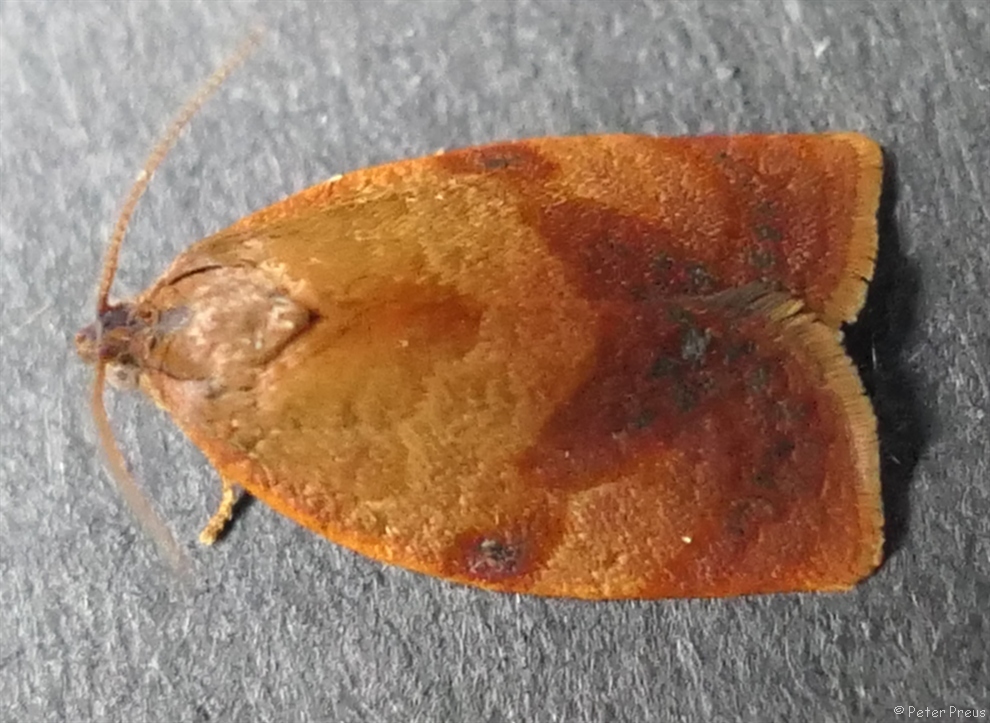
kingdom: Animalia
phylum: Arthropoda
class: Insecta
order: Lepidoptera
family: Tortricidae
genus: Cacoecimorpha
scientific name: Cacoecimorpha pronubana
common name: Carnation tortrix
